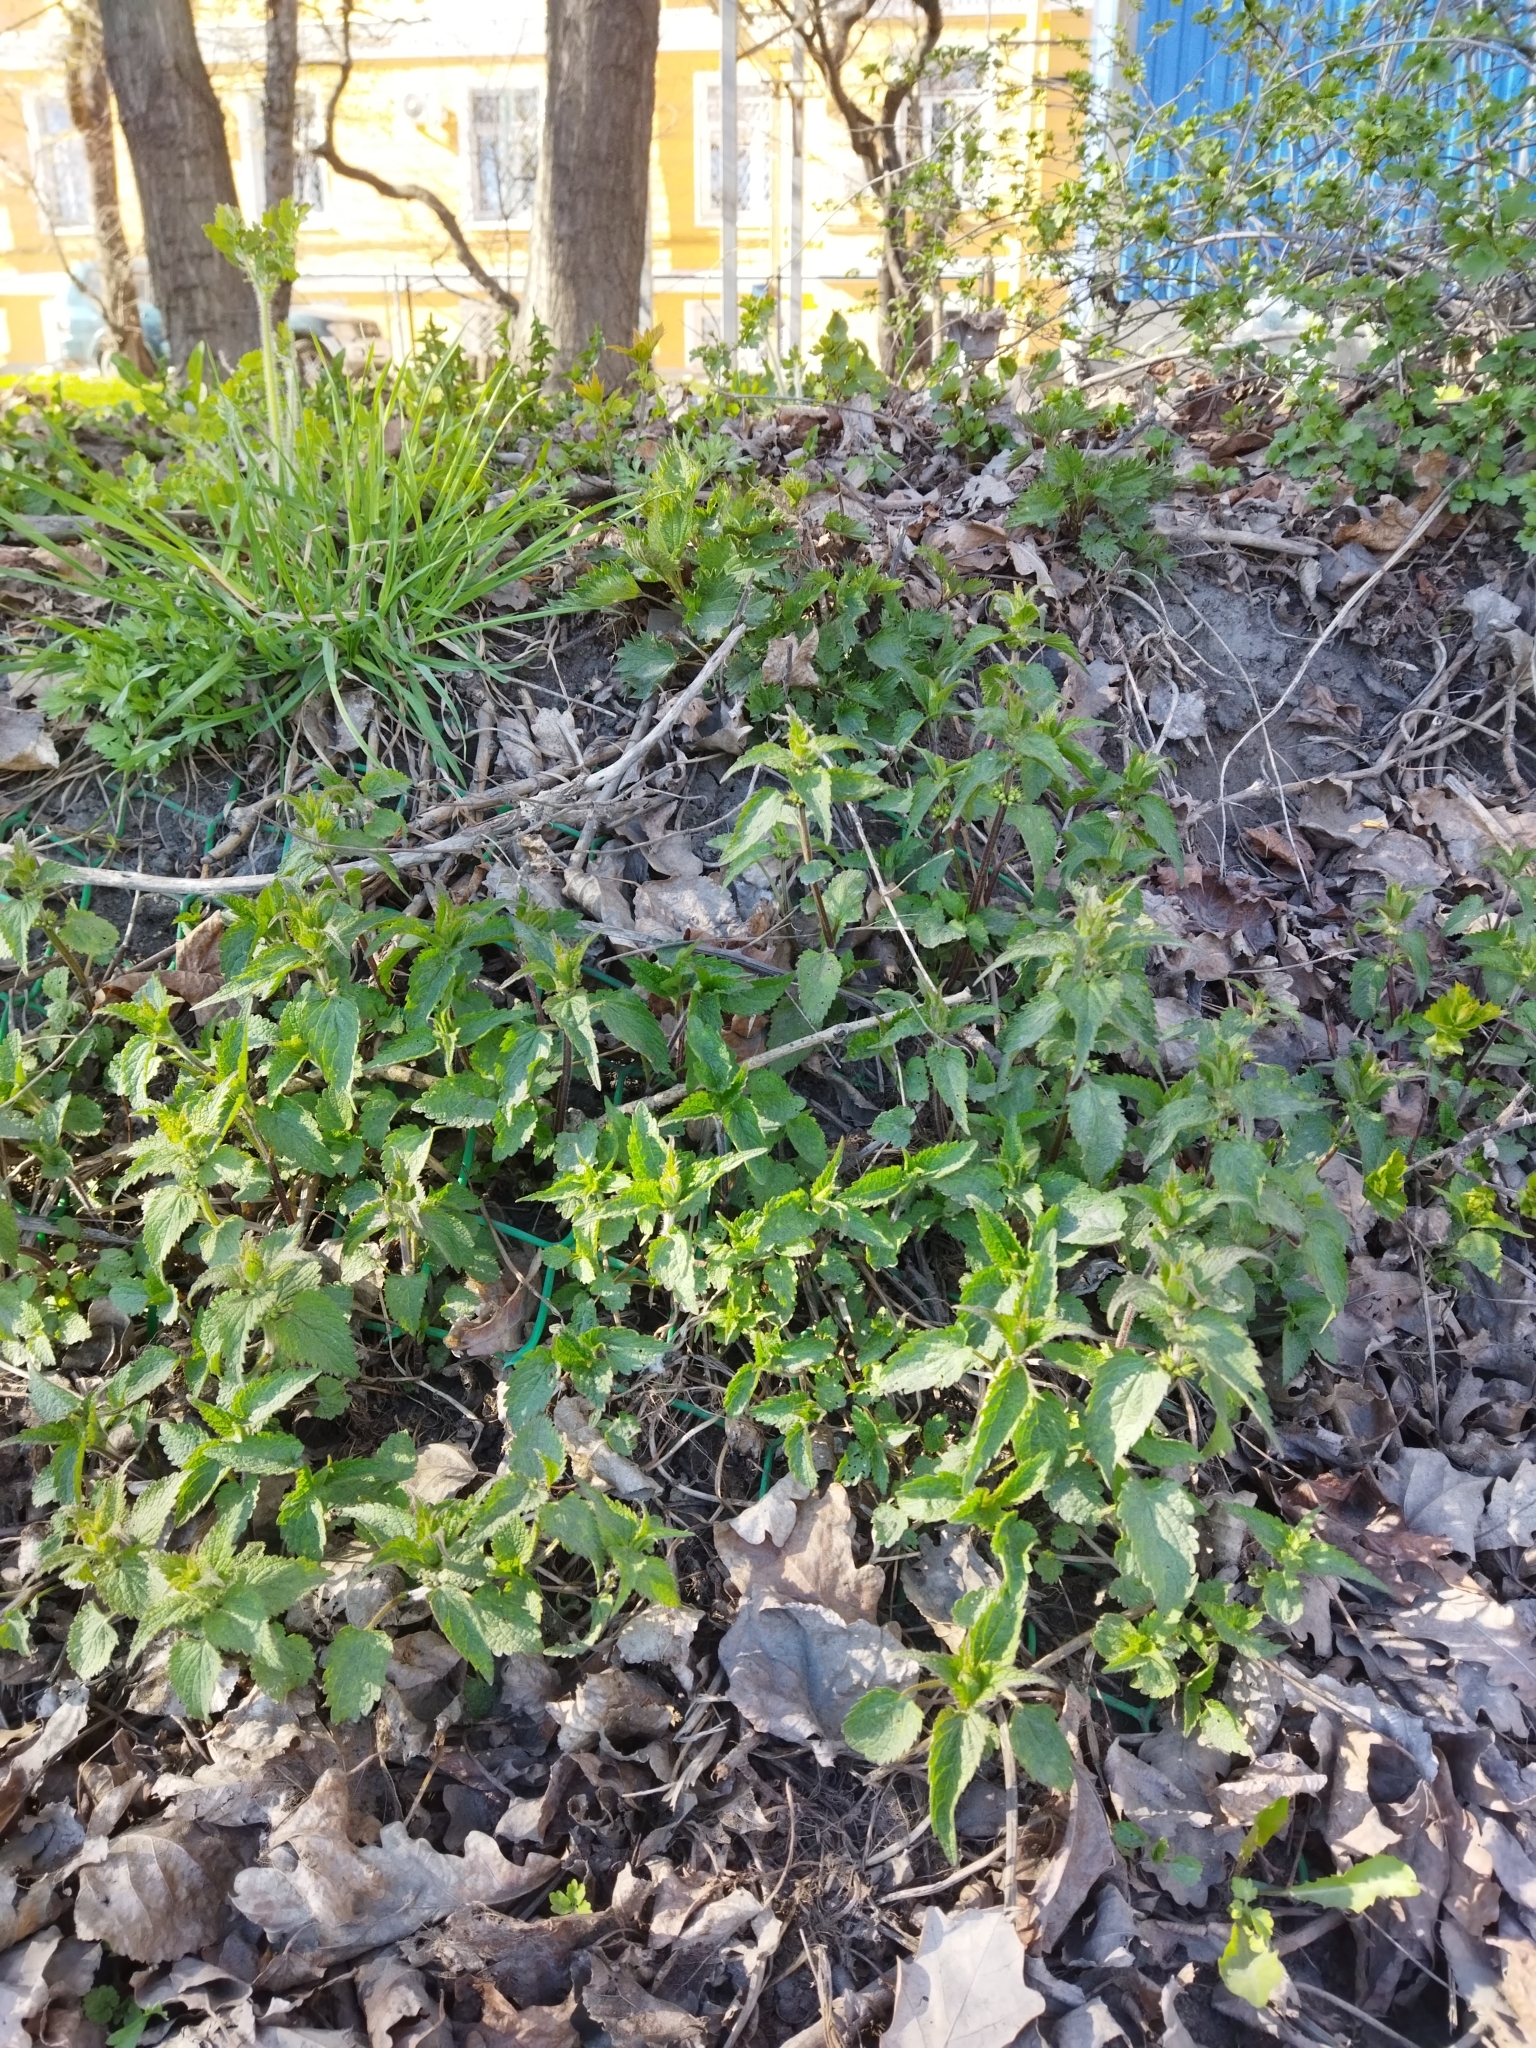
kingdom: Plantae
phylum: Tracheophyta
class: Magnoliopsida
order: Rosales
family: Urticaceae
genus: Urtica
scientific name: Urtica dioica
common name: Common nettle
